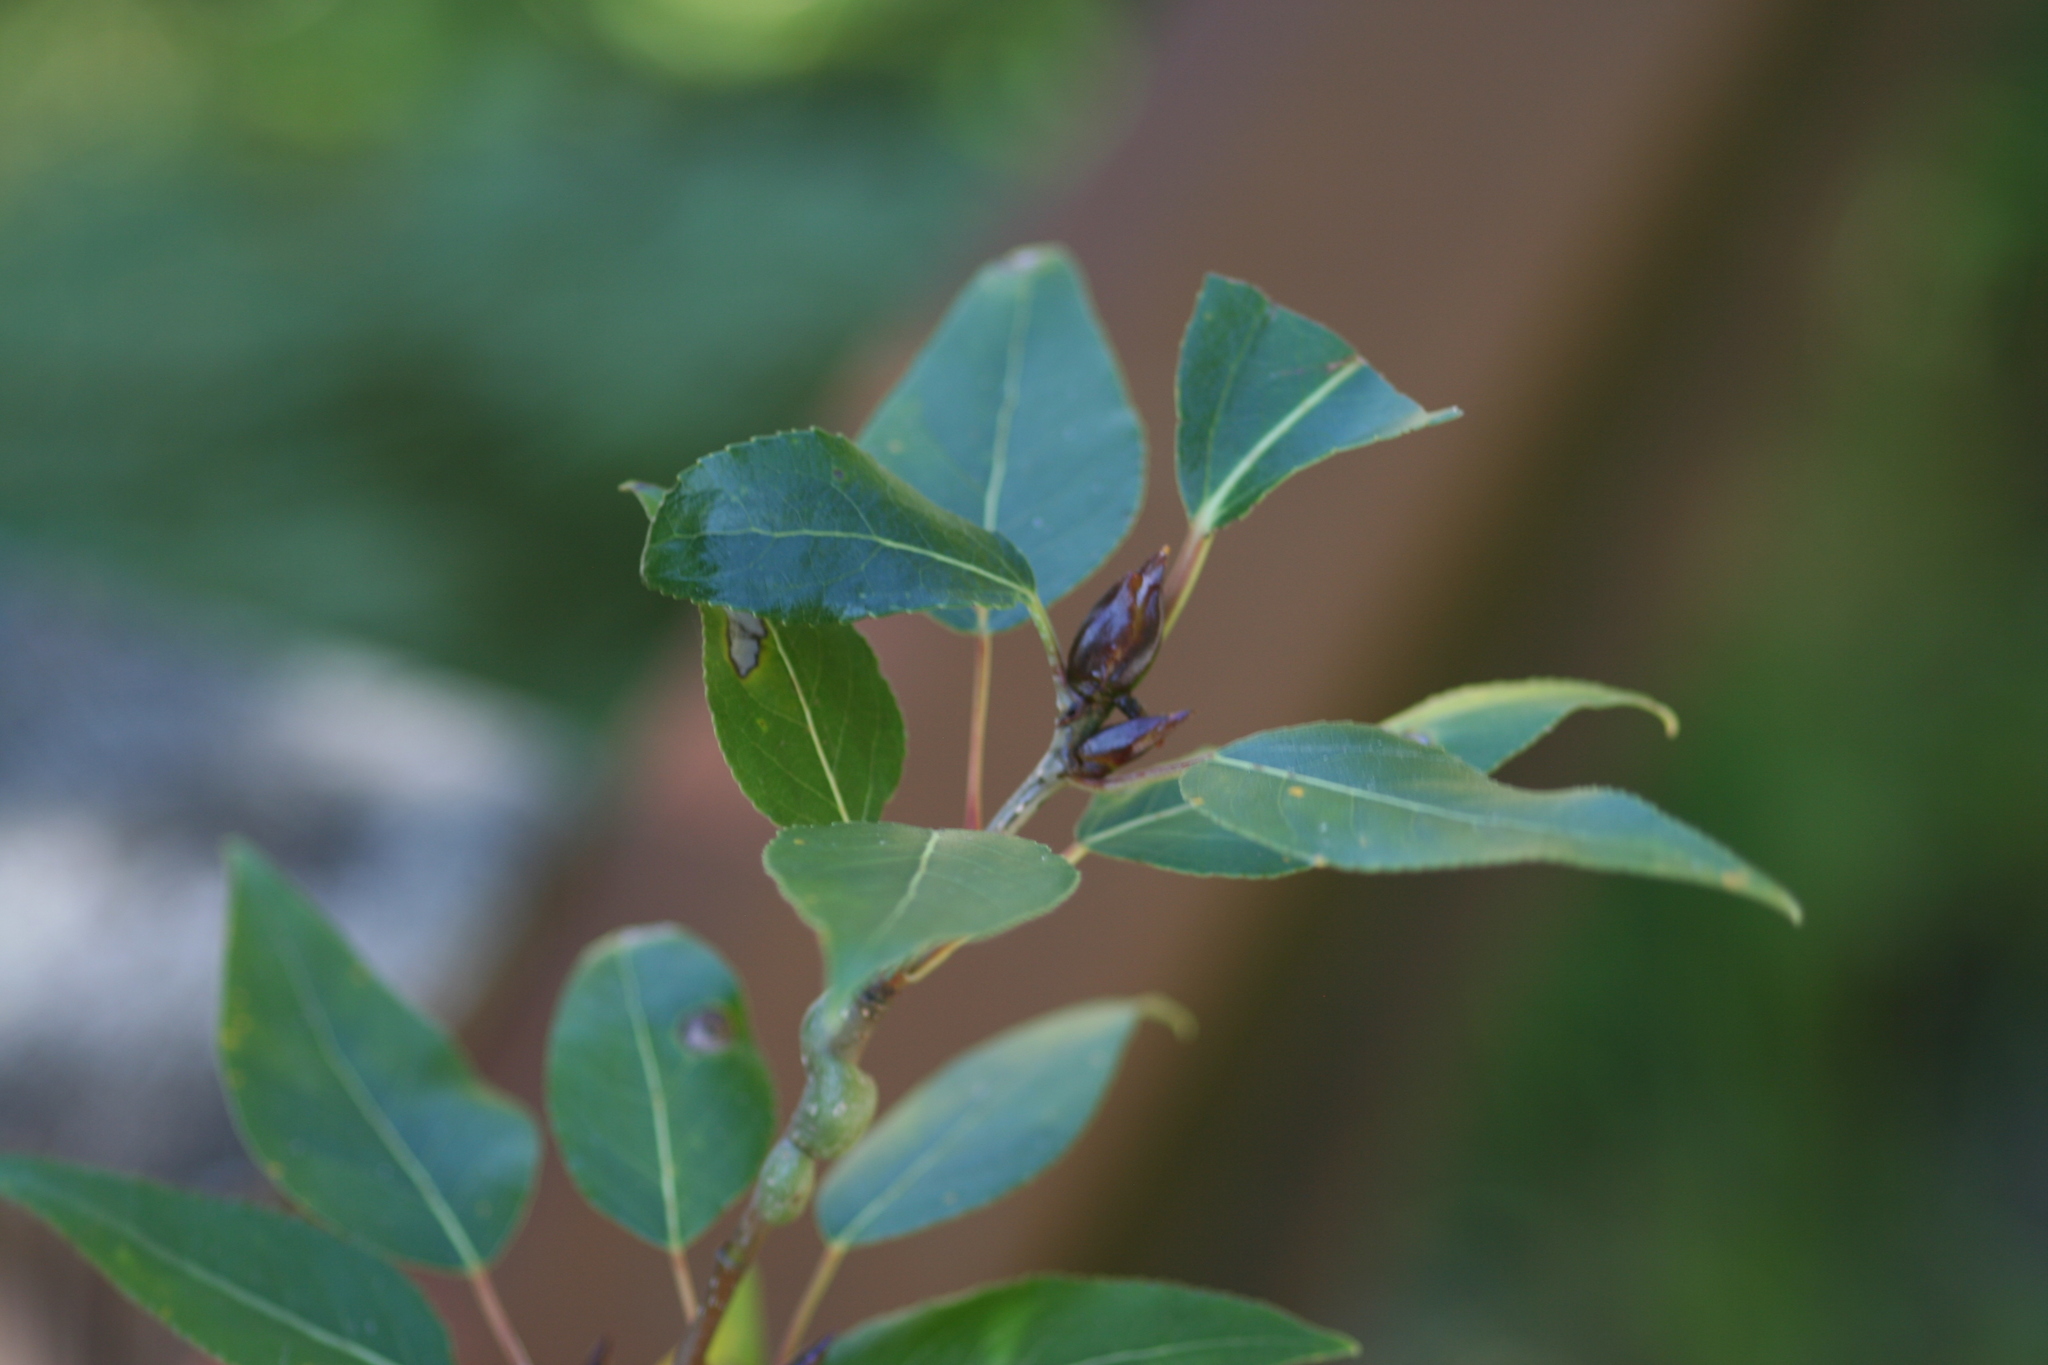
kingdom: Plantae
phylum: Tracheophyta
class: Magnoliopsida
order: Malpighiales
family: Salicaceae
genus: Populus
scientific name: Populus trichocarpa
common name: Black cottonwood
